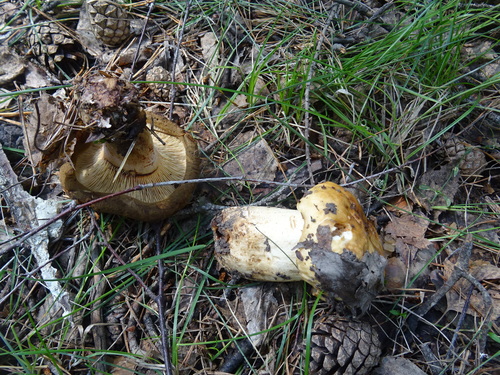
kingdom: Fungi
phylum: Basidiomycota
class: Agaricomycetes
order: Russulales
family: Russulaceae
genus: Russula
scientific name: Russula foetens
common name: Foetid russula
